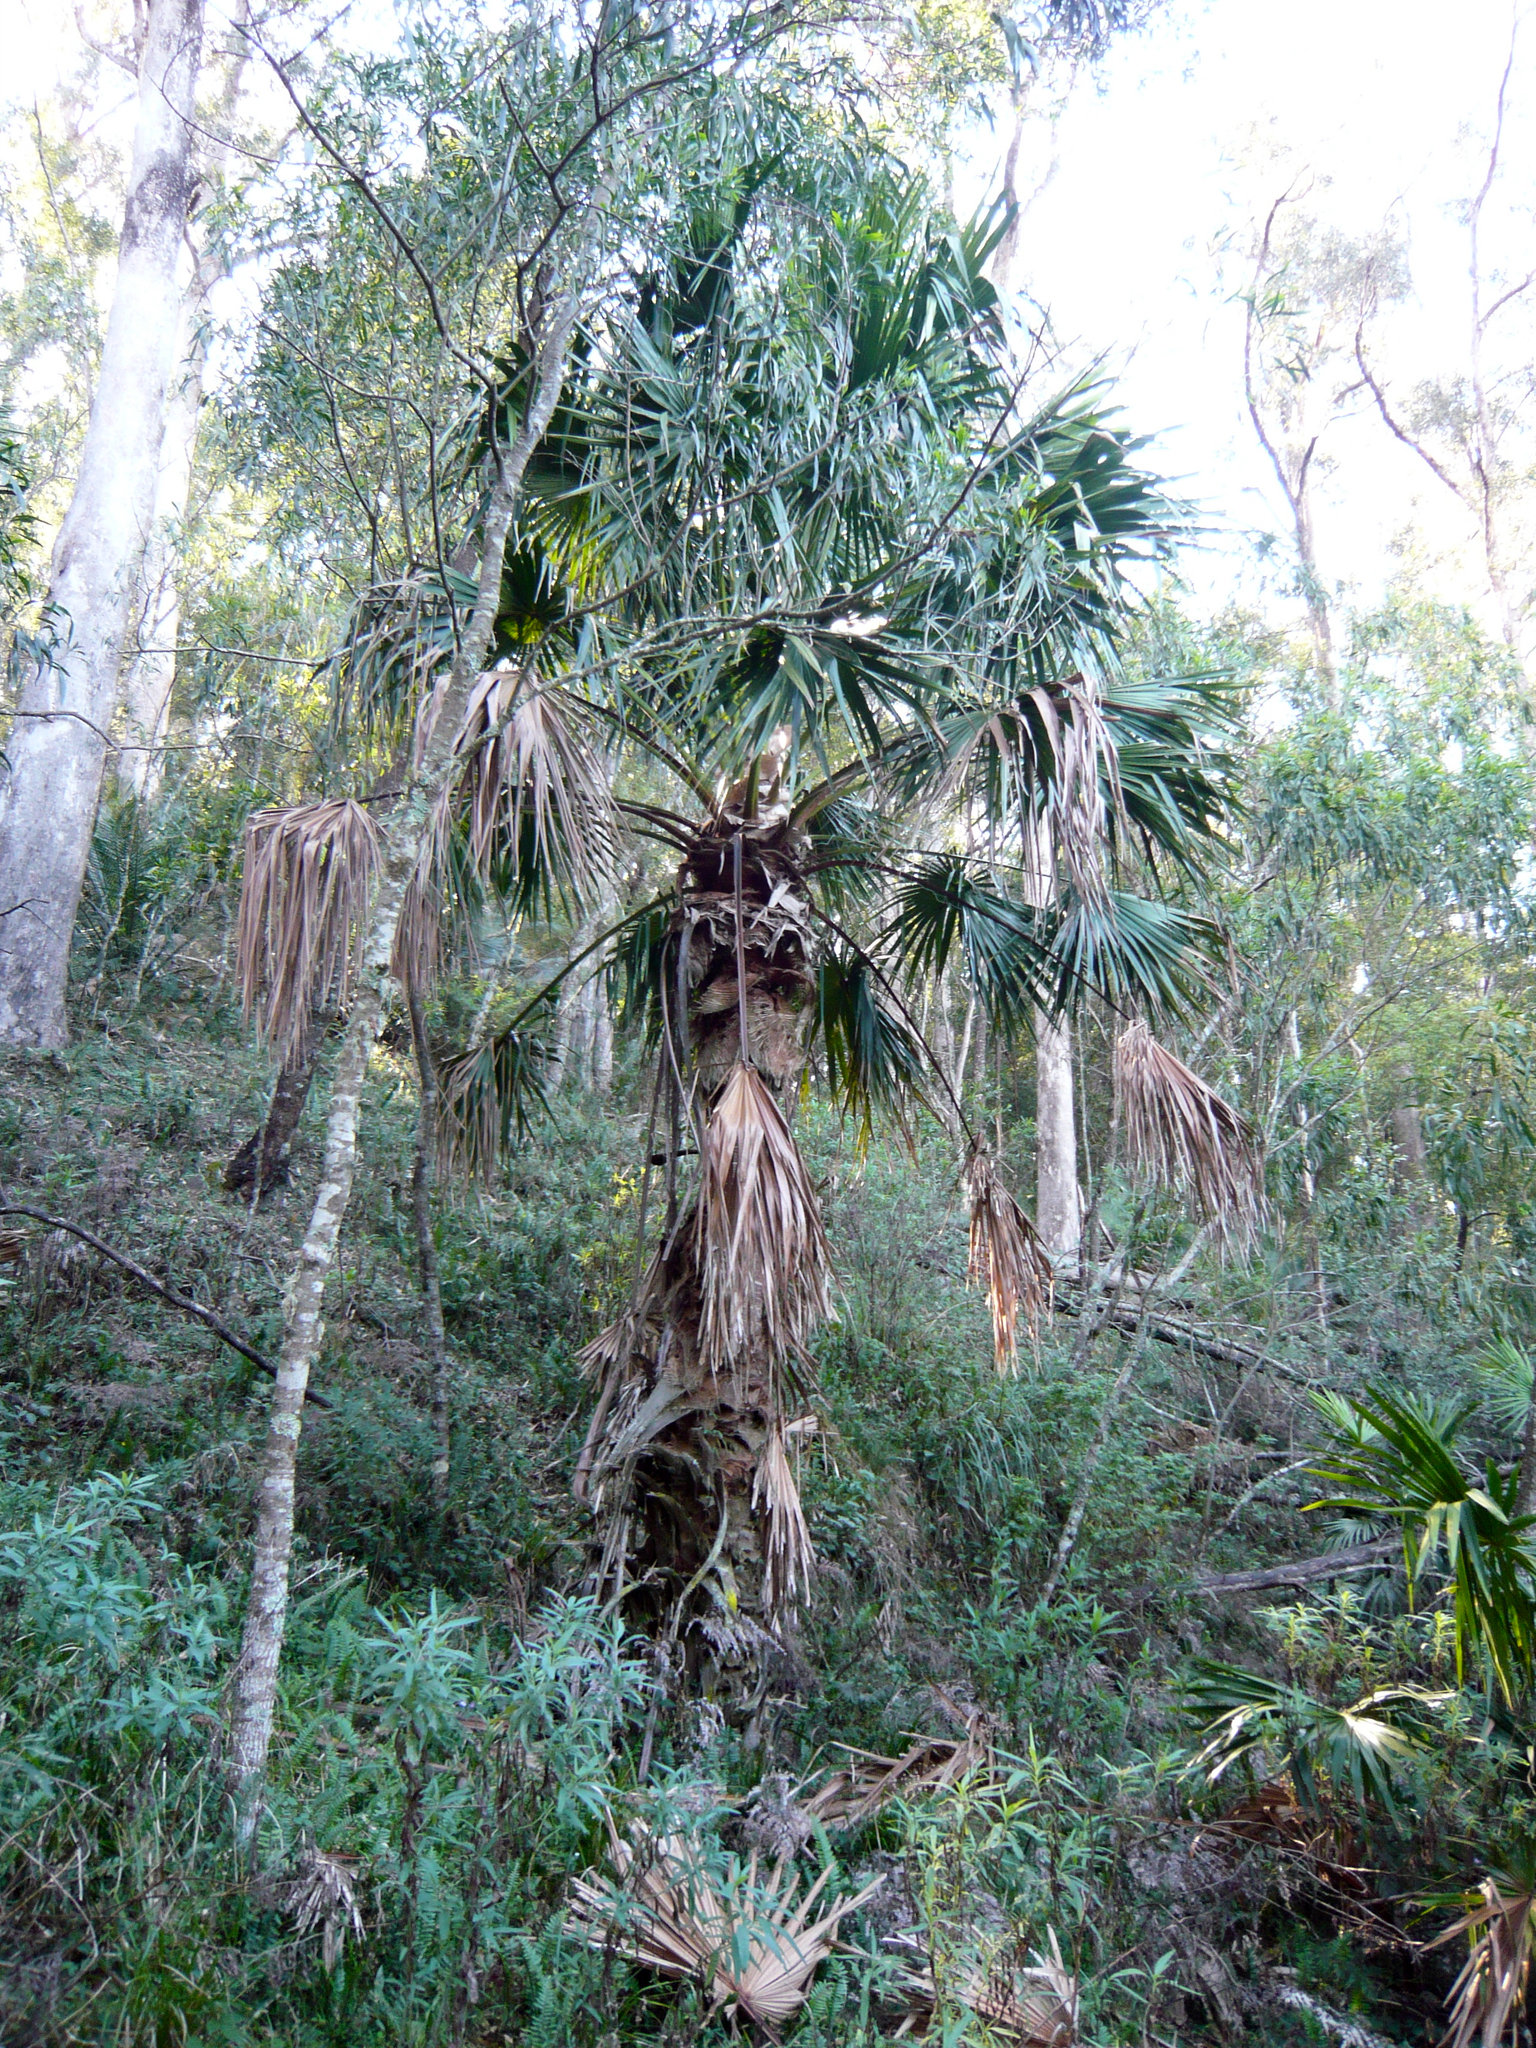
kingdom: Plantae
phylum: Tracheophyta
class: Liliopsida
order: Arecales
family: Arecaceae
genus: Livistona
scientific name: Livistona australis
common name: Cabbage fan palm
